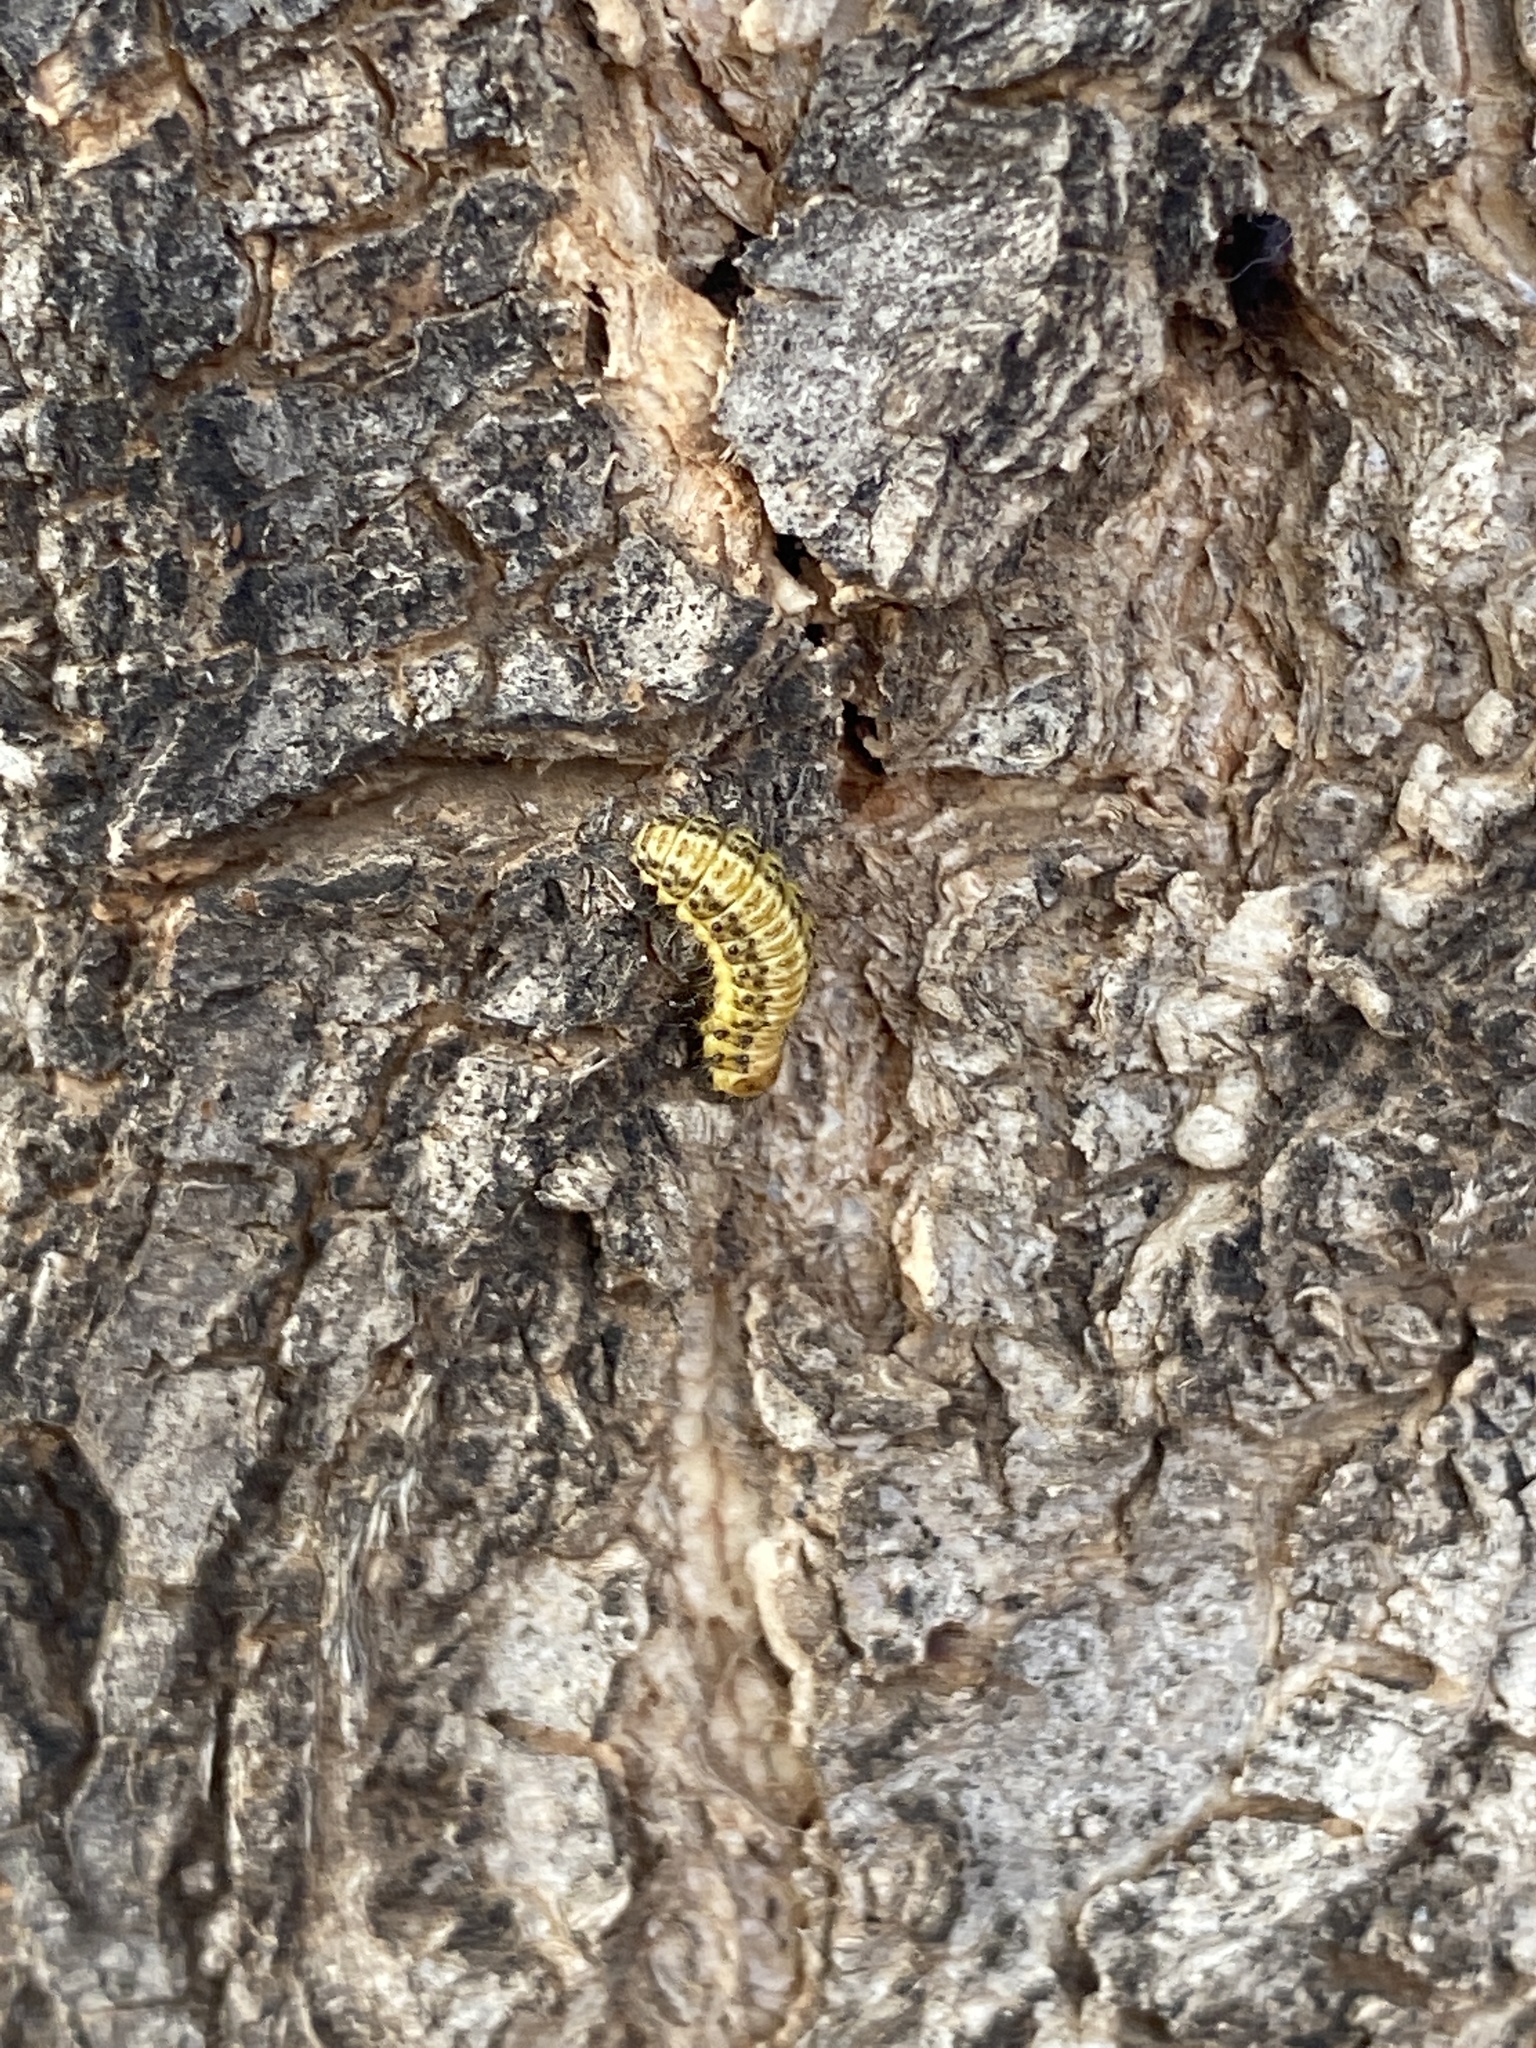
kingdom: Animalia
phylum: Arthropoda
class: Insecta
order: Coleoptera
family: Chrysomelidae
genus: Xanthogaleruca
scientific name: Xanthogaleruca luteola
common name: Elm leaf beetle
